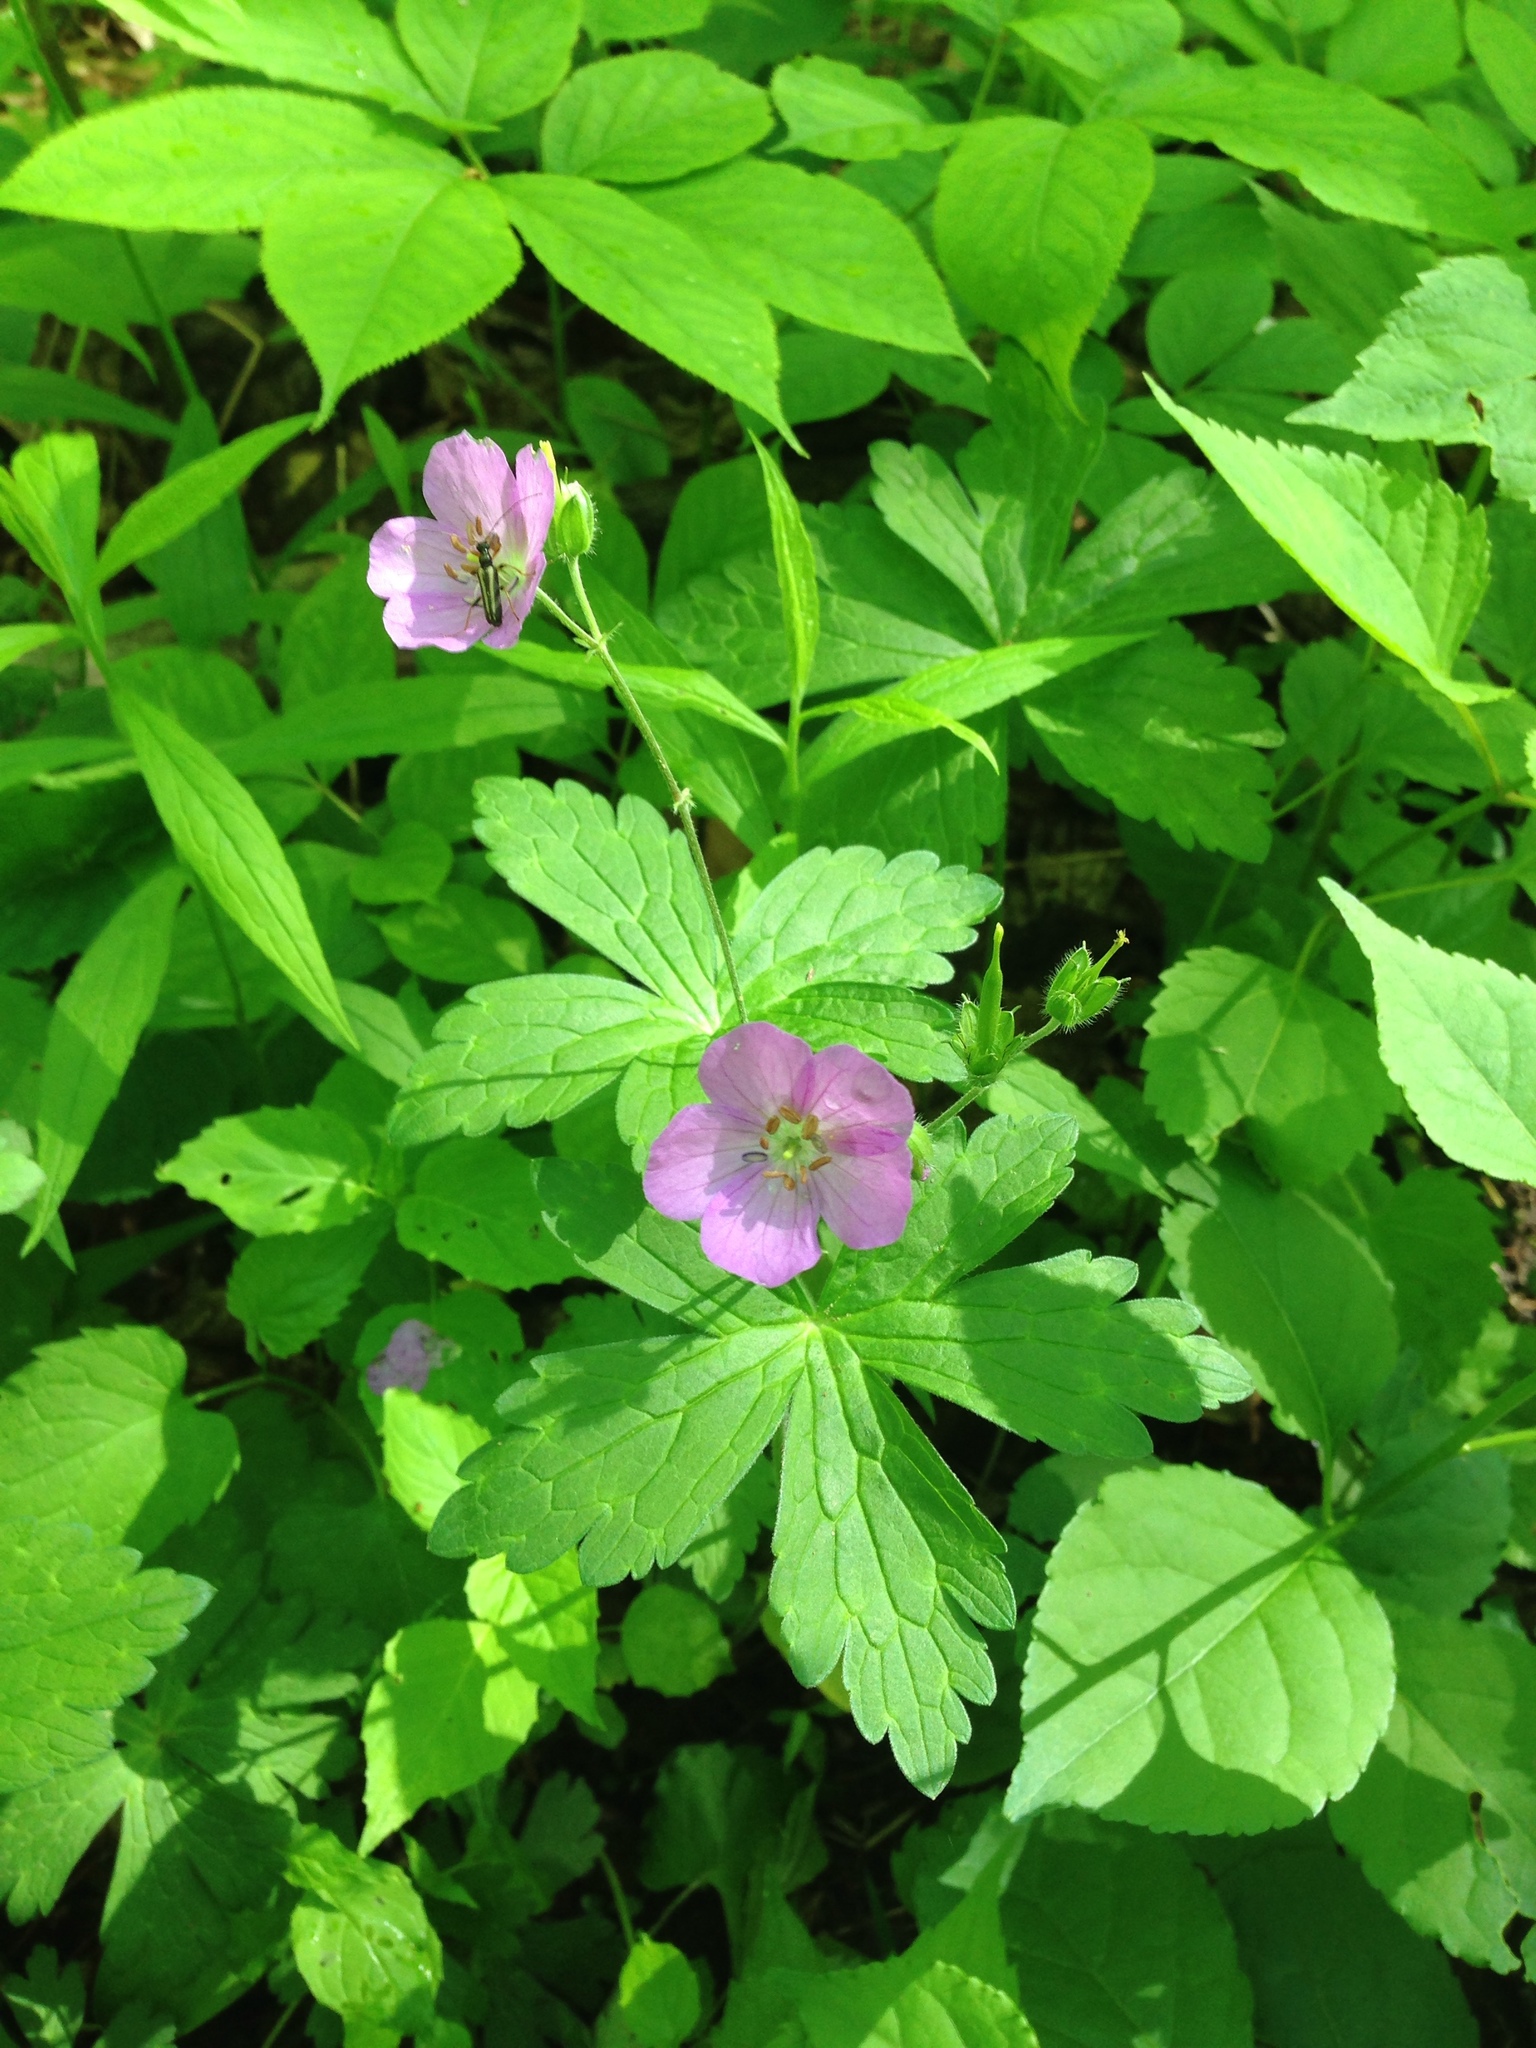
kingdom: Plantae
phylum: Tracheophyta
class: Magnoliopsida
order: Geraniales
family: Geraniaceae
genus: Geranium
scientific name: Geranium maculatum
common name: Spotted geranium
